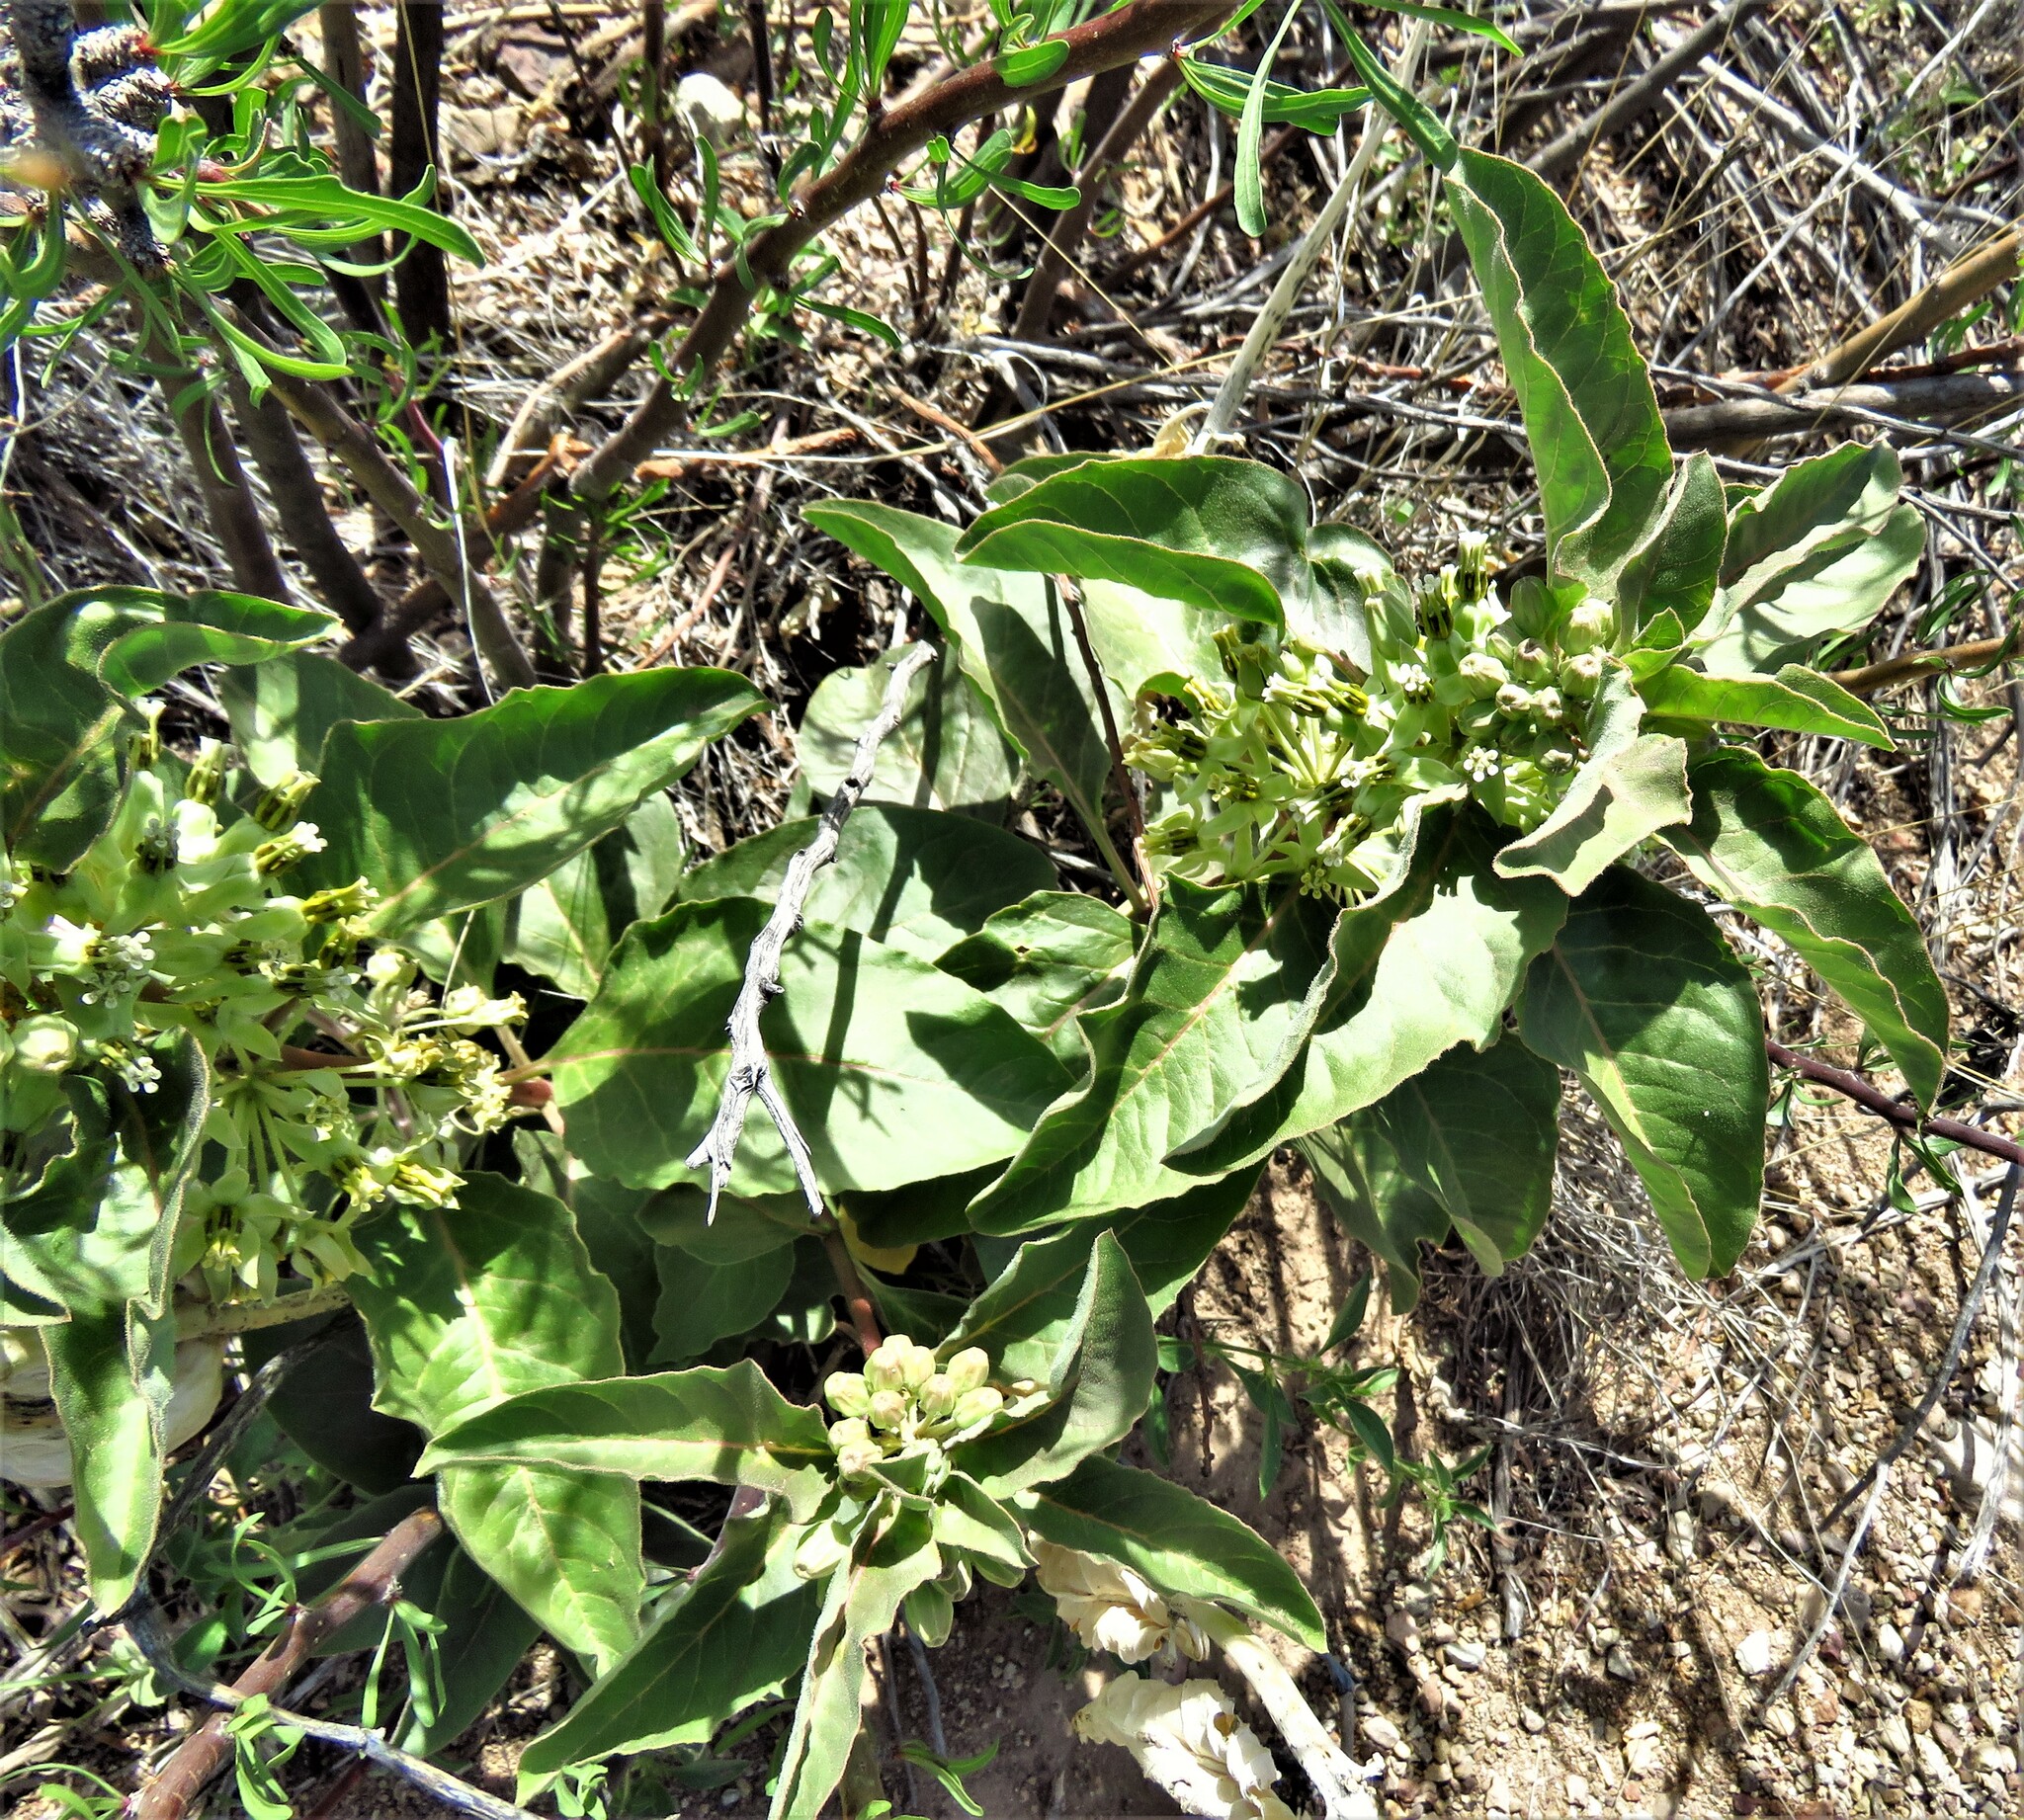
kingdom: Plantae
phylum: Tracheophyta
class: Magnoliopsida
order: Gentianales
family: Apocynaceae
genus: Asclepias
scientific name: Asclepias oenotheroides
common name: Zizotes milkweed
